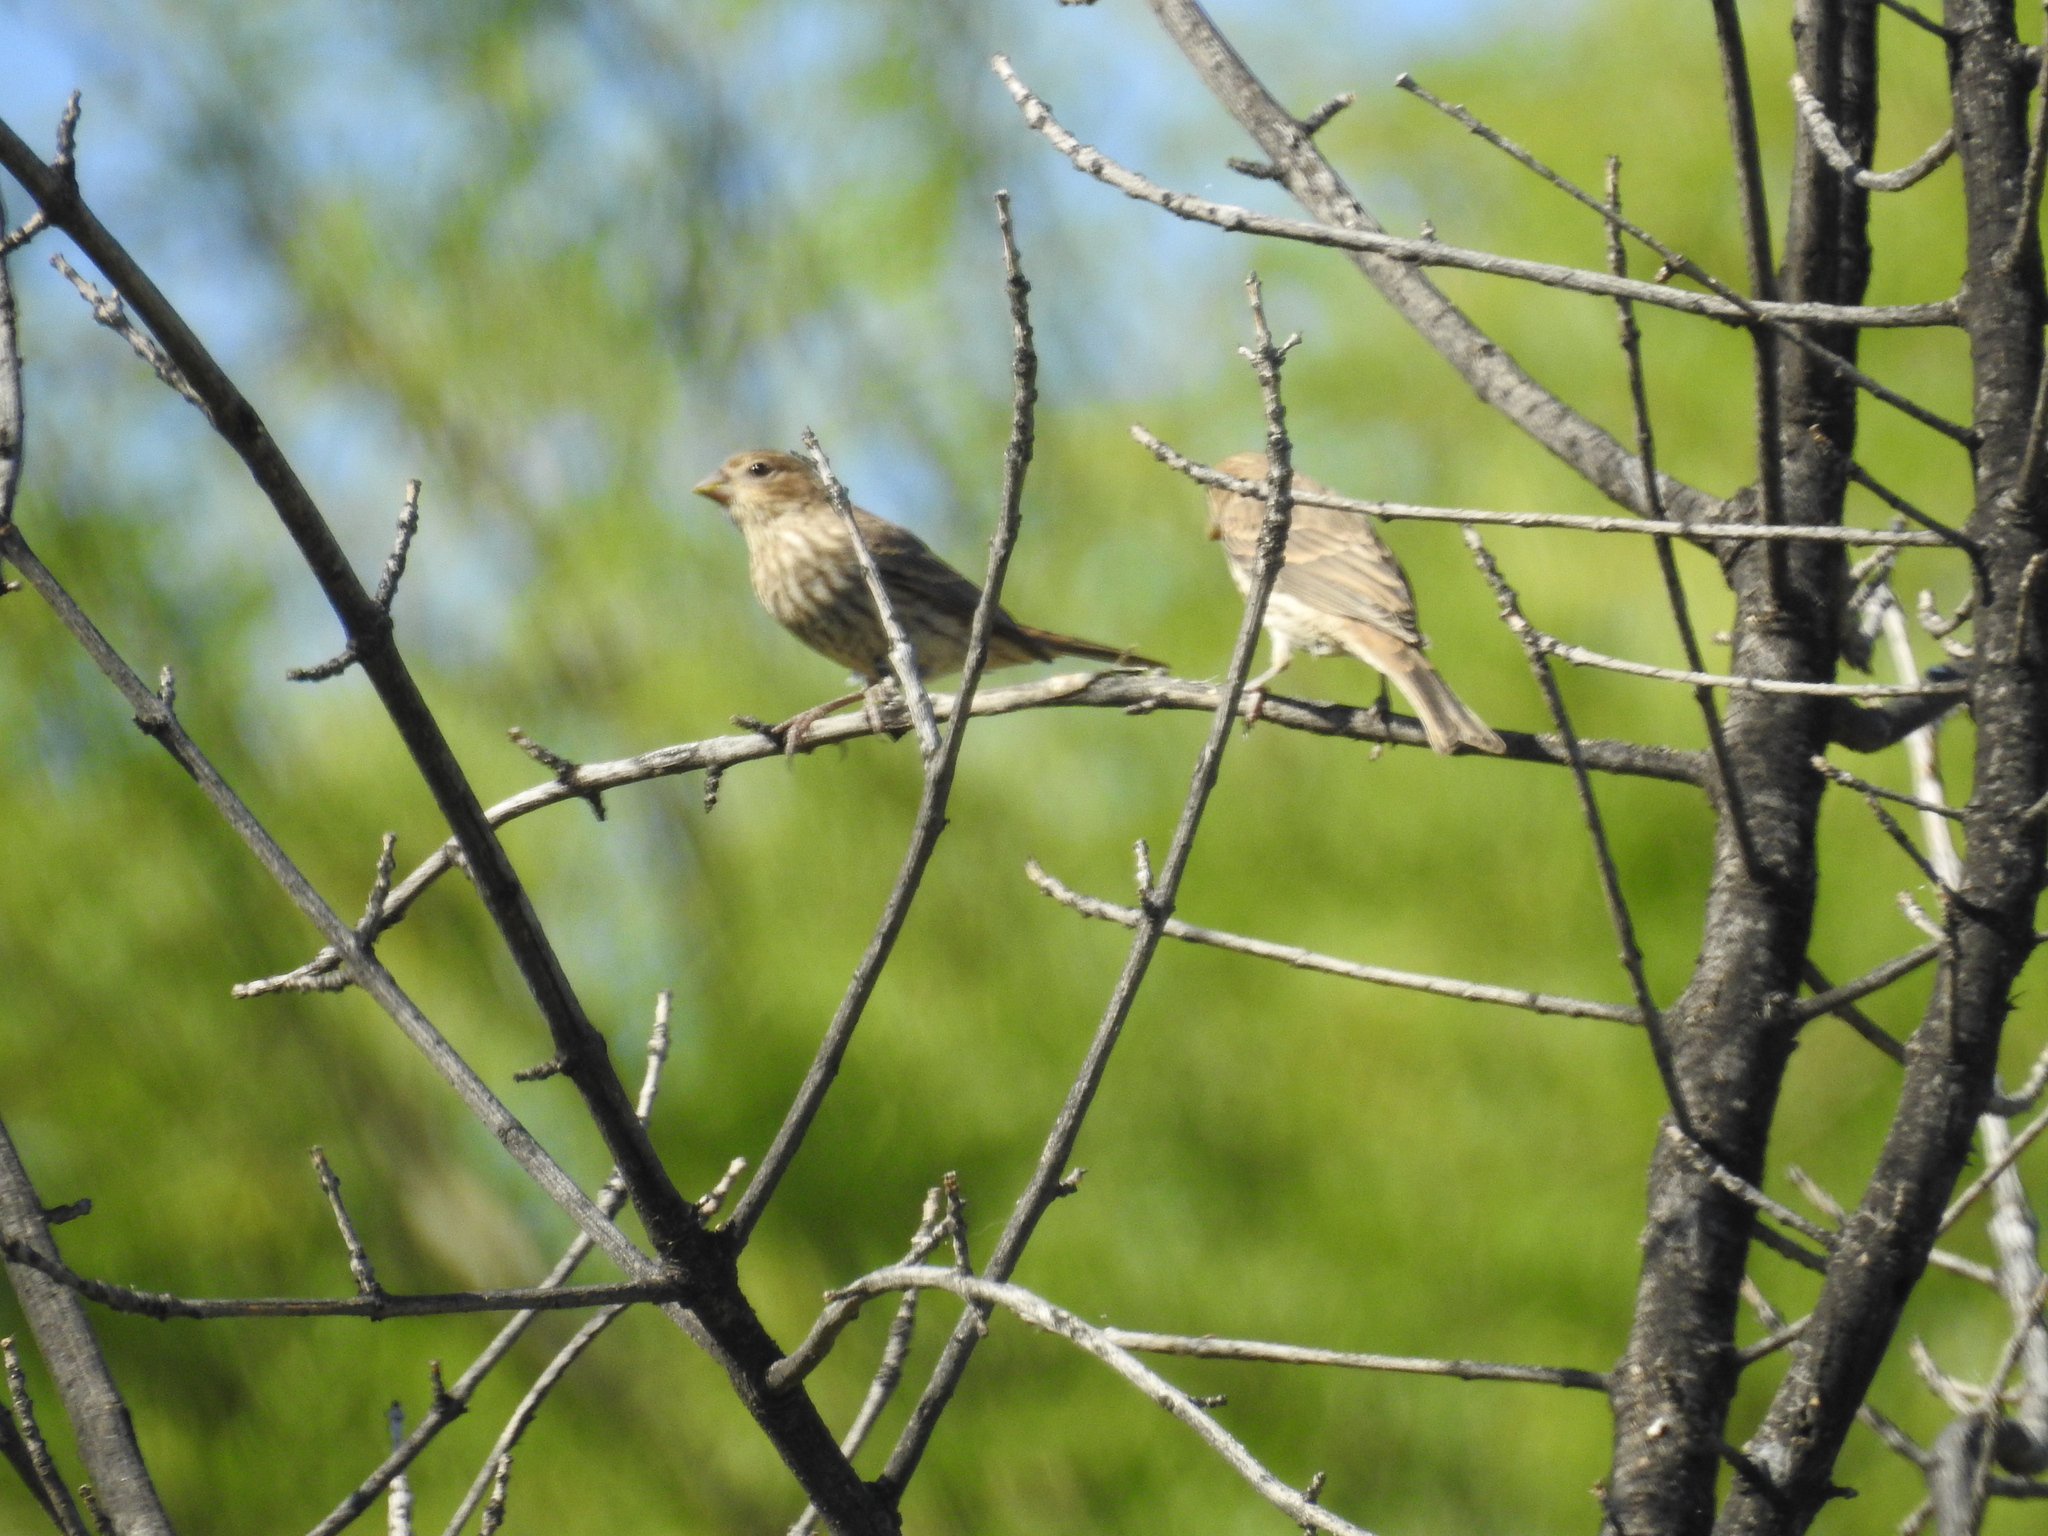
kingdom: Animalia
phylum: Chordata
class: Aves
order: Passeriformes
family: Fringillidae
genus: Haemorhous
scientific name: Haemorhous mexicanus
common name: House finch
